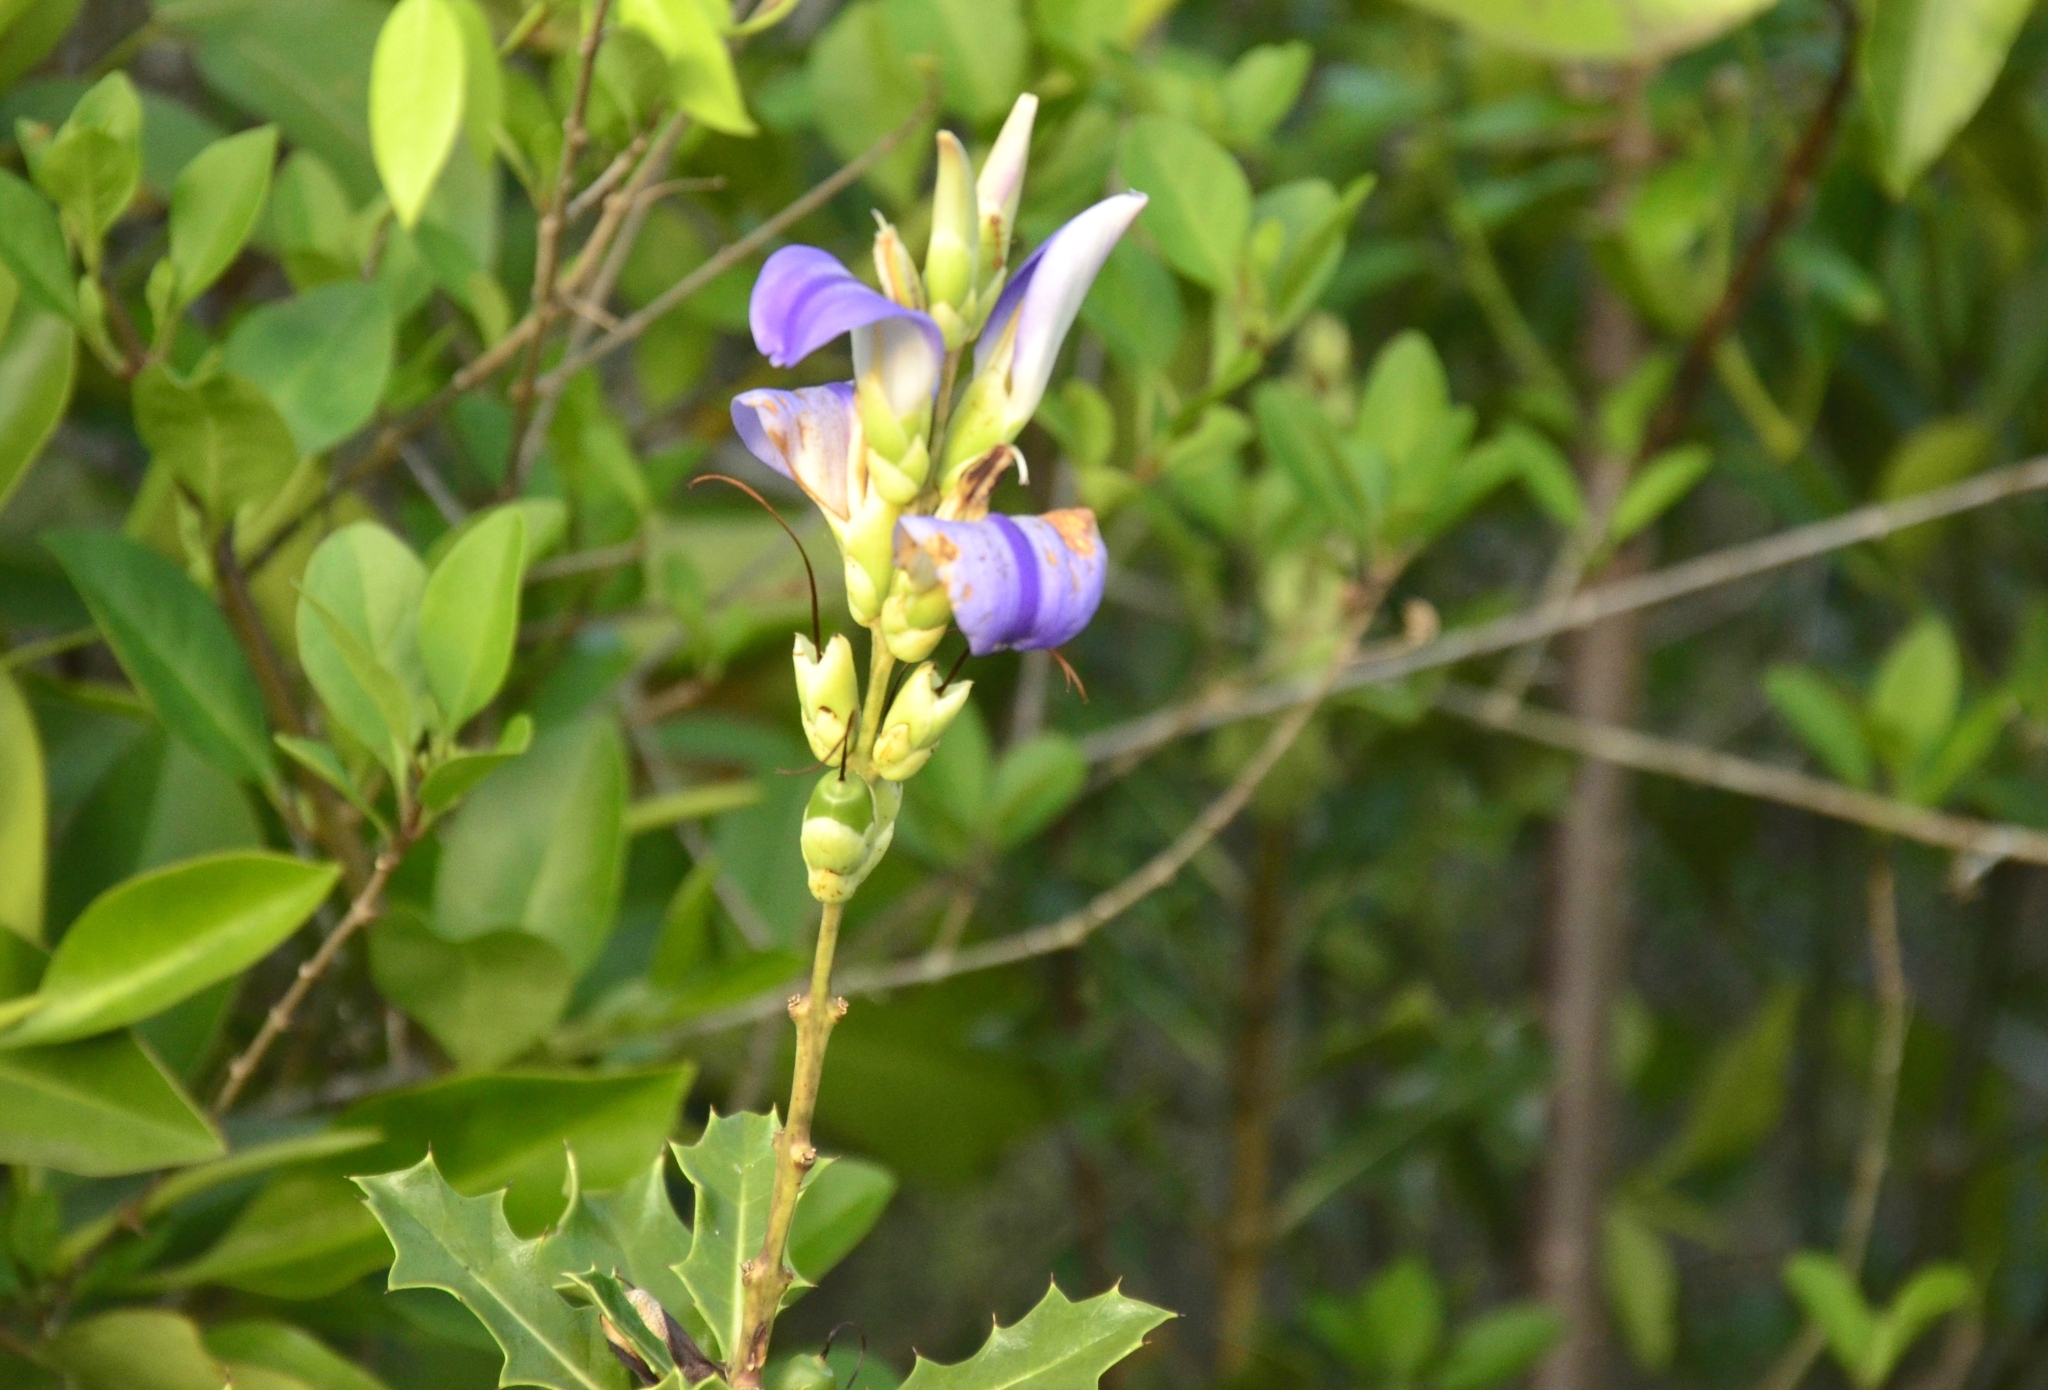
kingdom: Plantae
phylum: Tracheophyta
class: Magnoliopsida
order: Lamiales
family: Acanthaceae
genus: Acanthus
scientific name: Acanthus ilicifolius
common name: Holy mangrove
